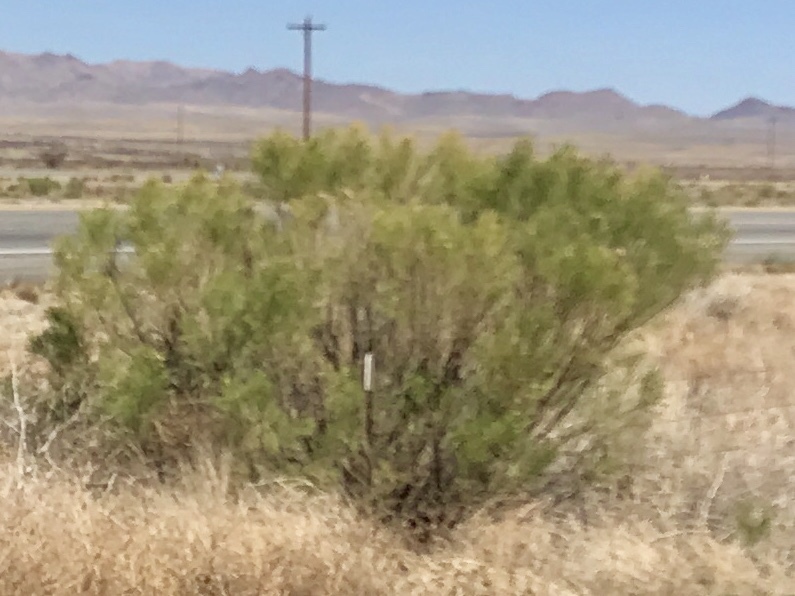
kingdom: Plantae
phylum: Tracheophyta
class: Magnoliopsida
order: Asterales
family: Asteraceae
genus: Baccharis
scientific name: Baccharis sarothroides
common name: Desert-broom
